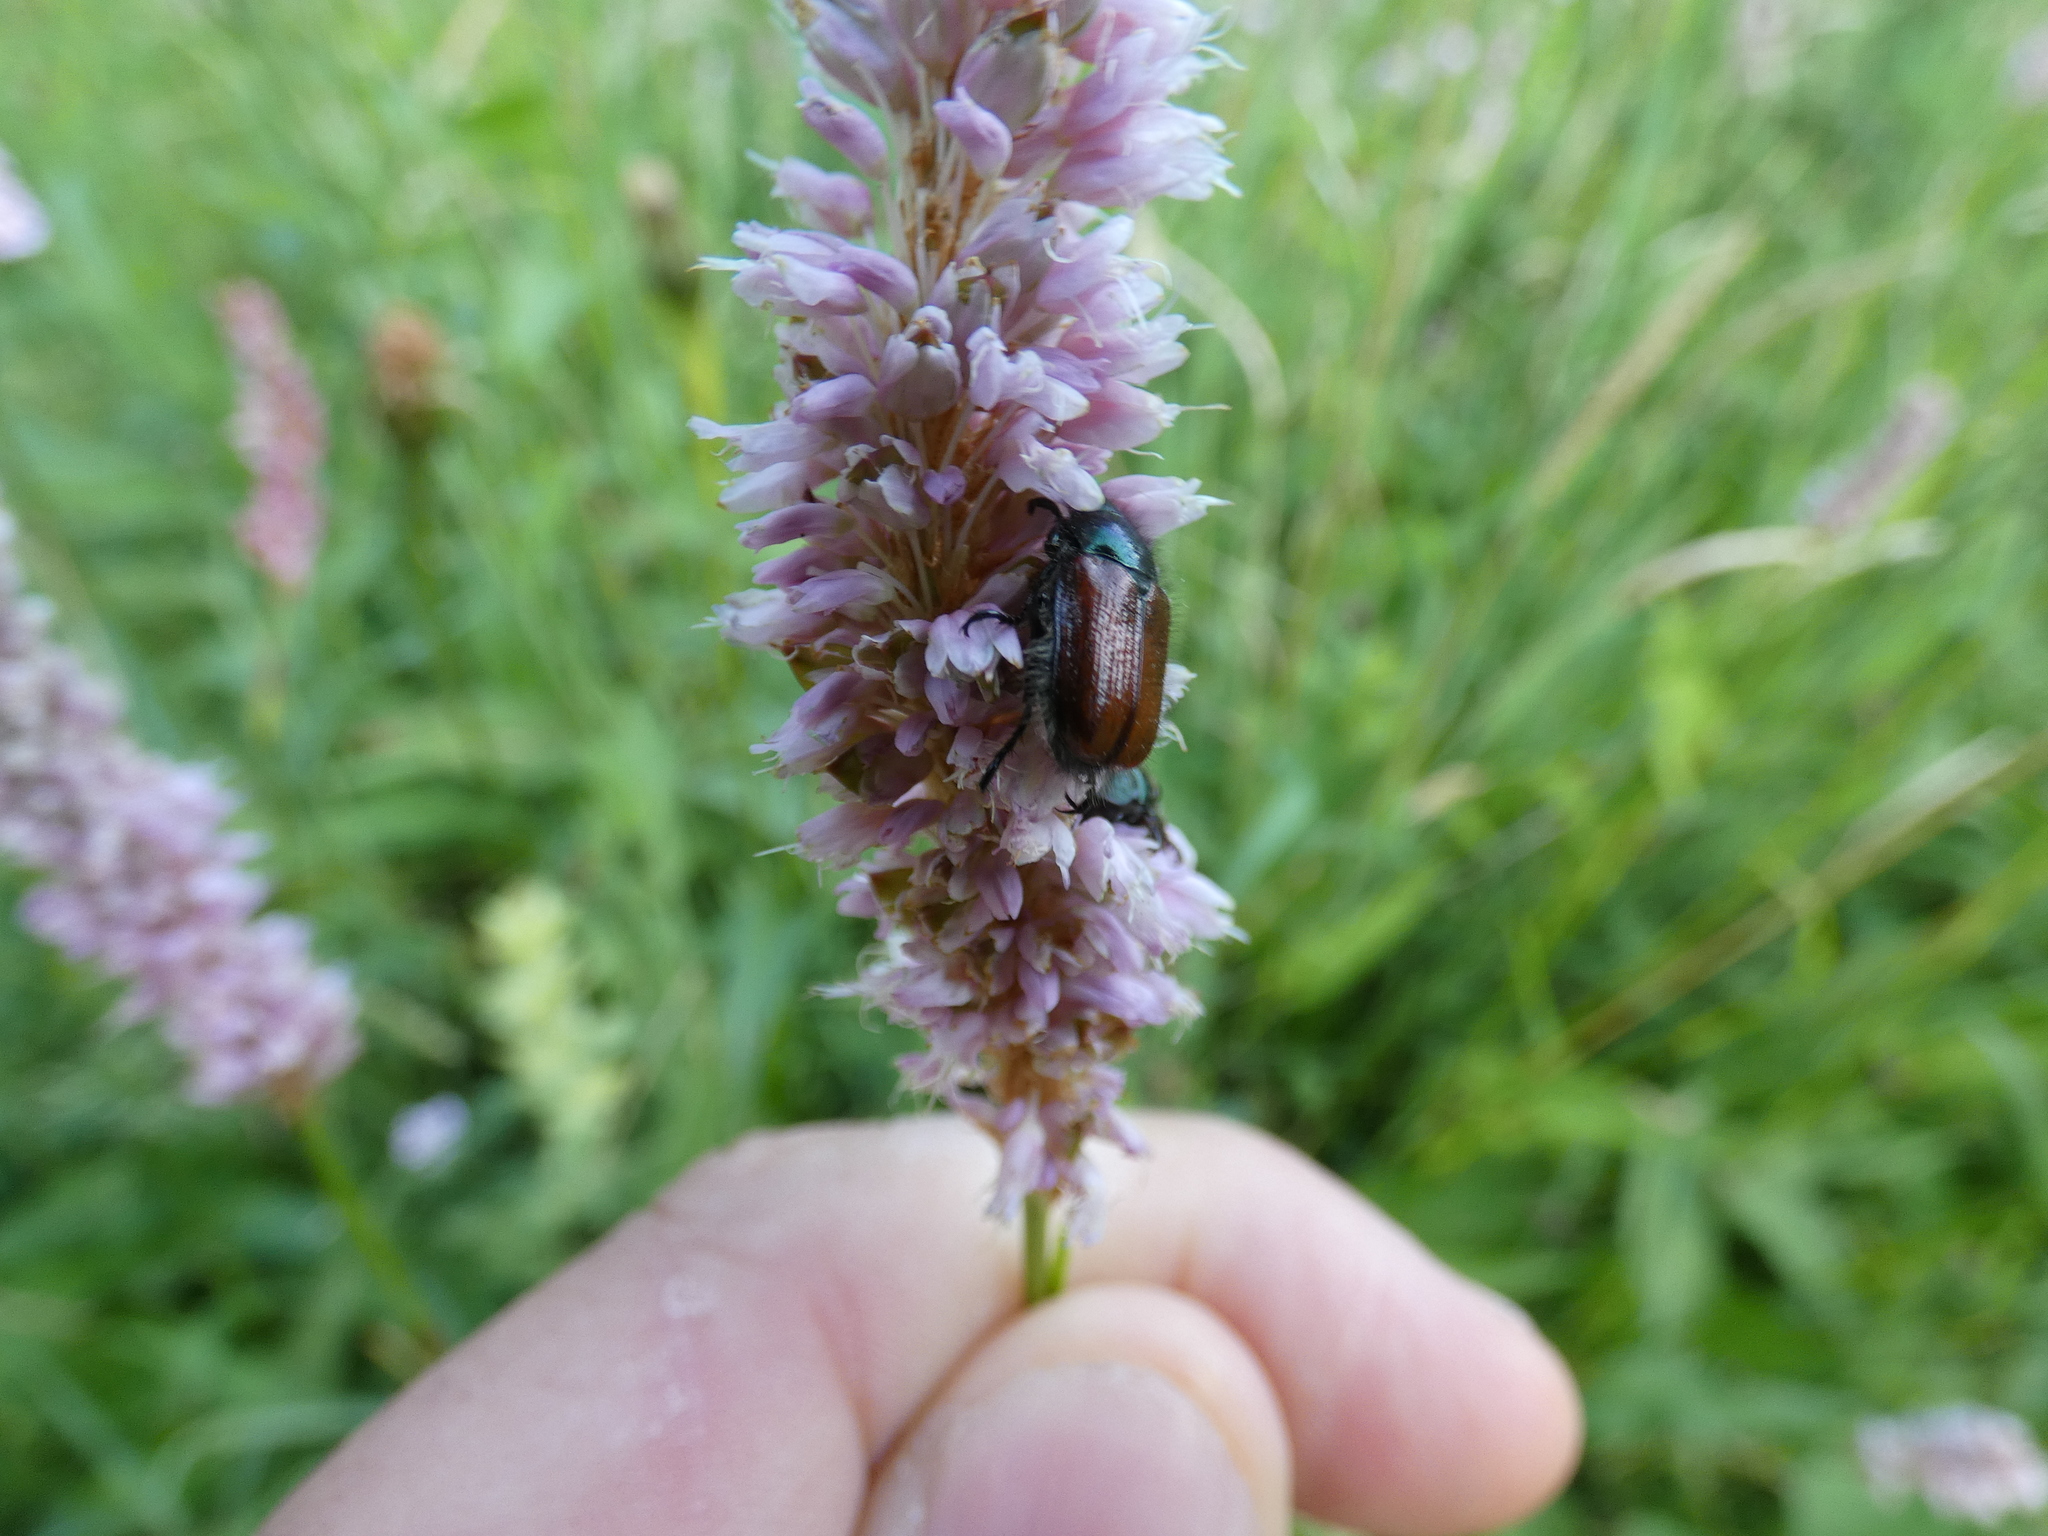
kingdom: Animalia
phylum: Arthropoda
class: Insecta
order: Coleoptera
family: Scarabaeidae
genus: Phyllopertha
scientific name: Phyllopertha horticola
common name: Garden chafer
